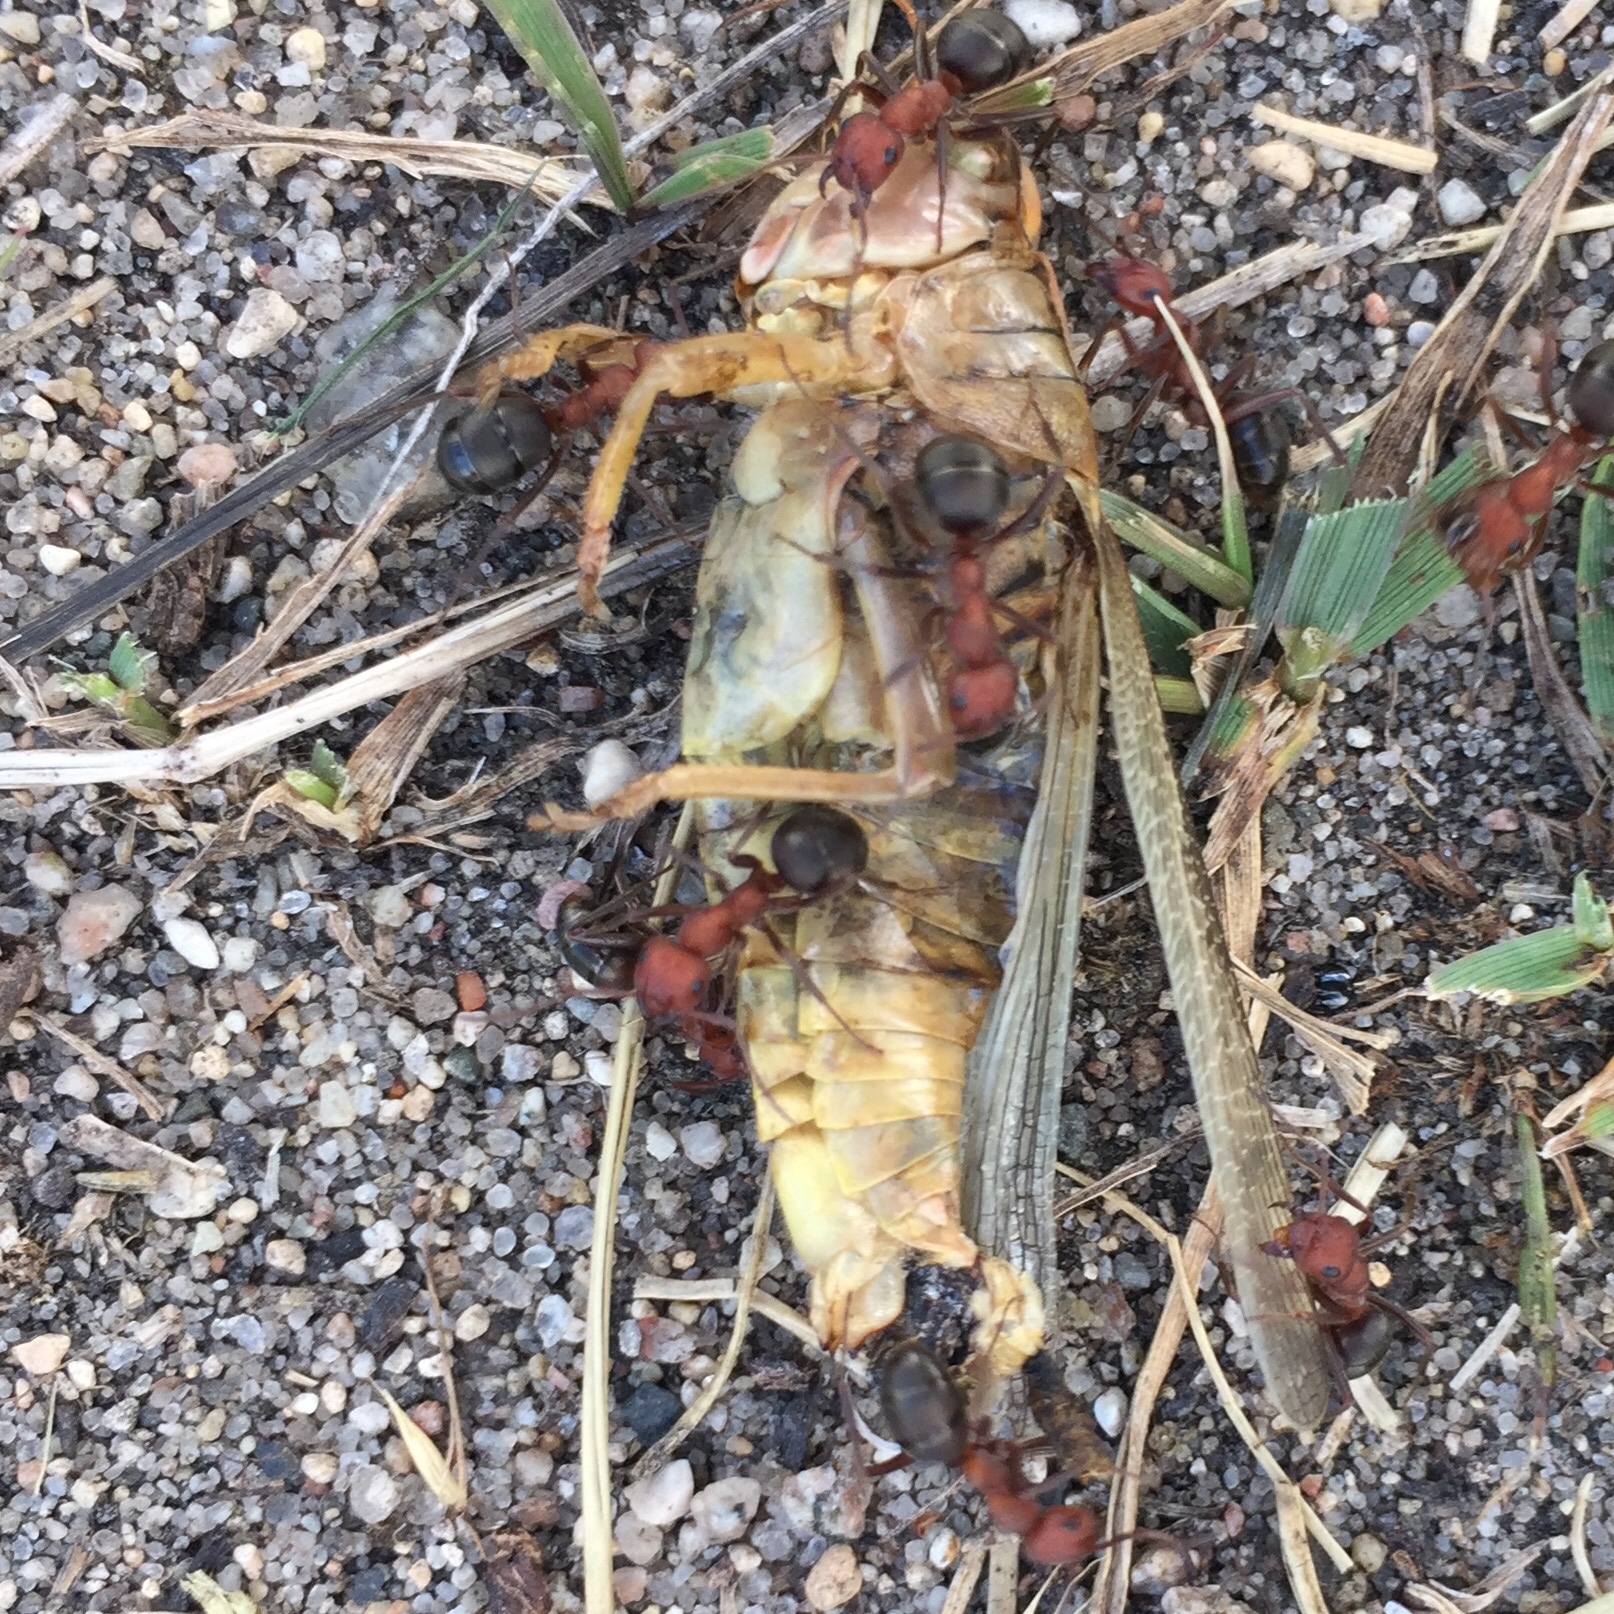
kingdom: Animalia
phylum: Arthropoda
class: Insecta
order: Orthoptera
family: Acrididae
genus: Melanoplus
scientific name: Melanoplus bivittatus
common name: Two-striped grasshopper
